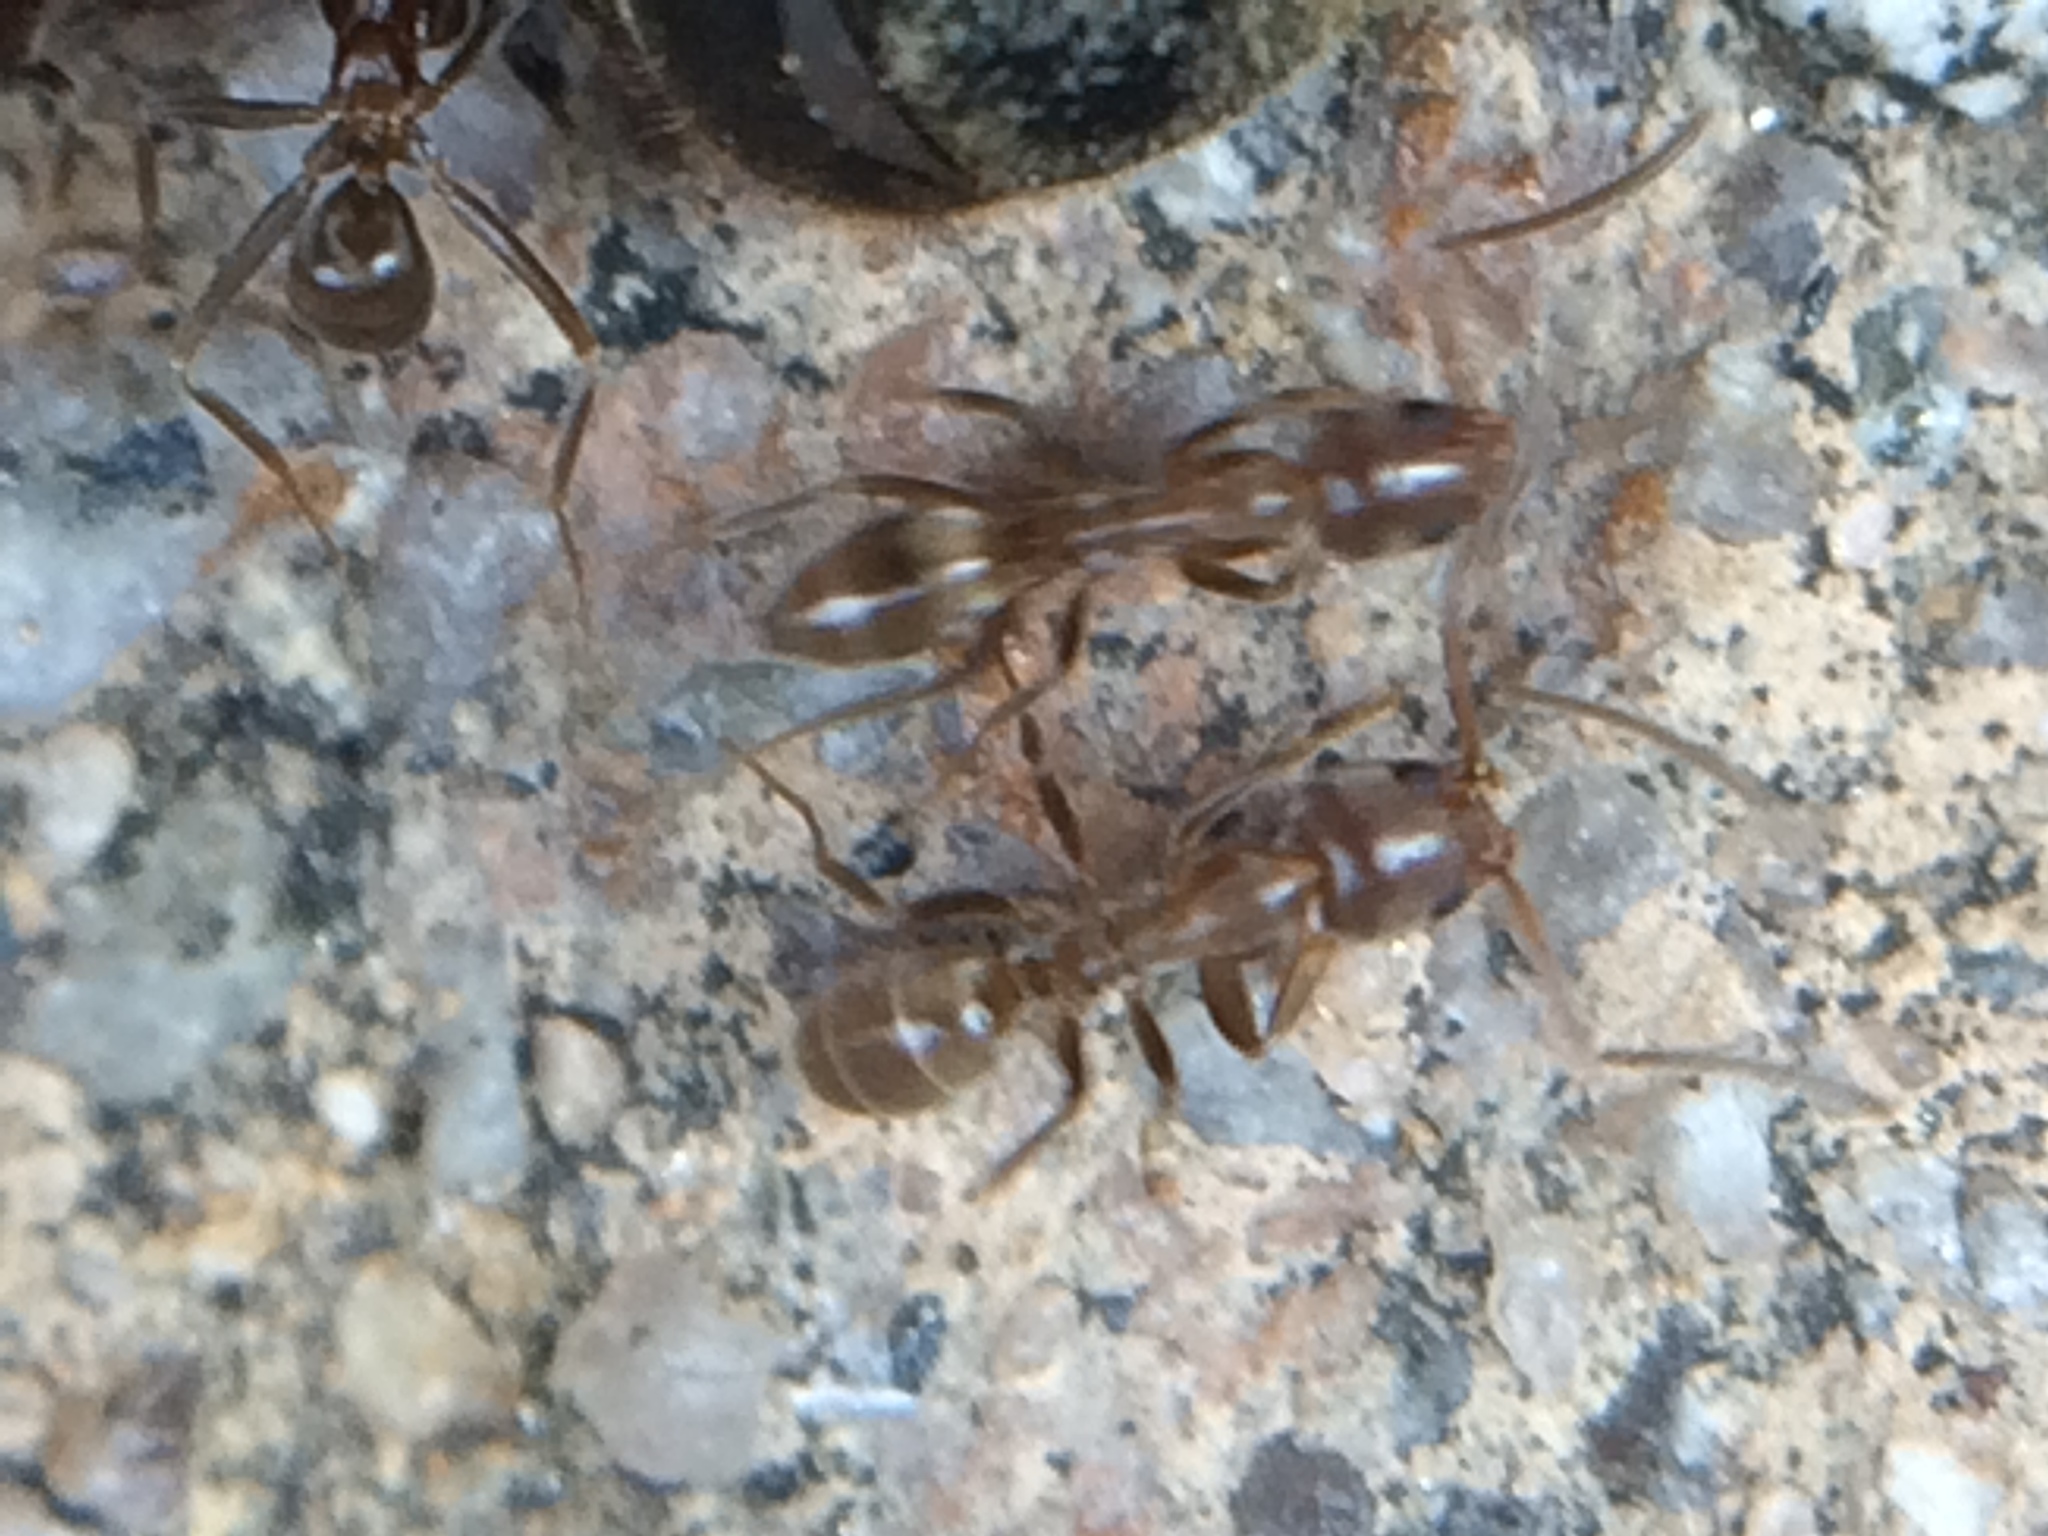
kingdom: Animalia
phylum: Arthropoda
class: Insecta
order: Hymenoptera
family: Formicidae
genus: Linepithema
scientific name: Linepithema humile
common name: Argentine ant
